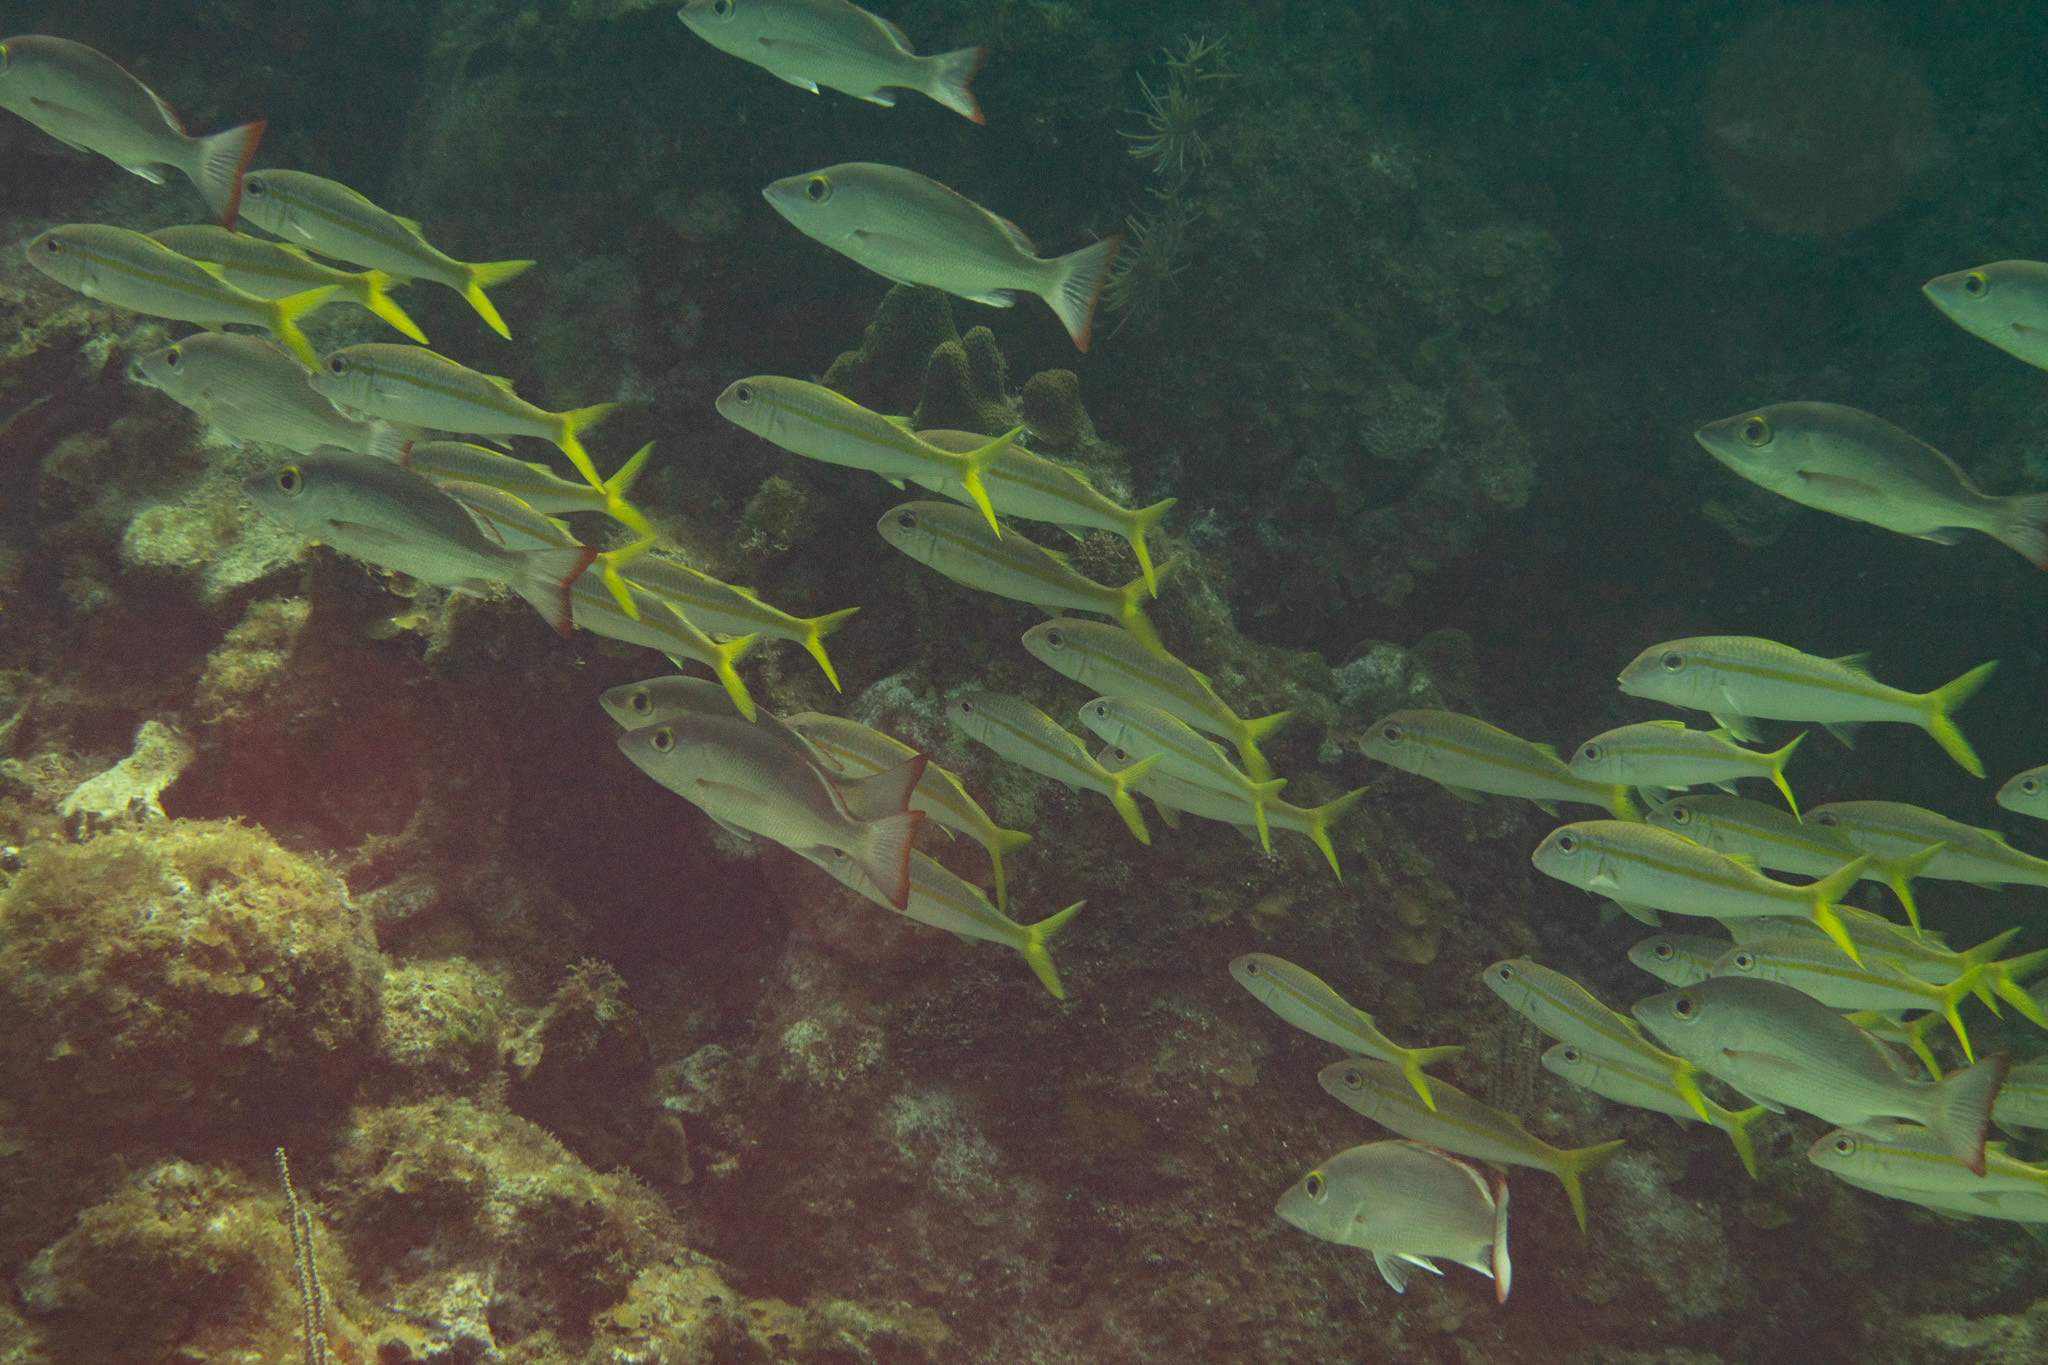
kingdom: Animalia
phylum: Chordata
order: Perciformes
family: Mullidae
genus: Mulloidichthys
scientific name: Mulloidichthys martinicus
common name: Yellow goatfish
